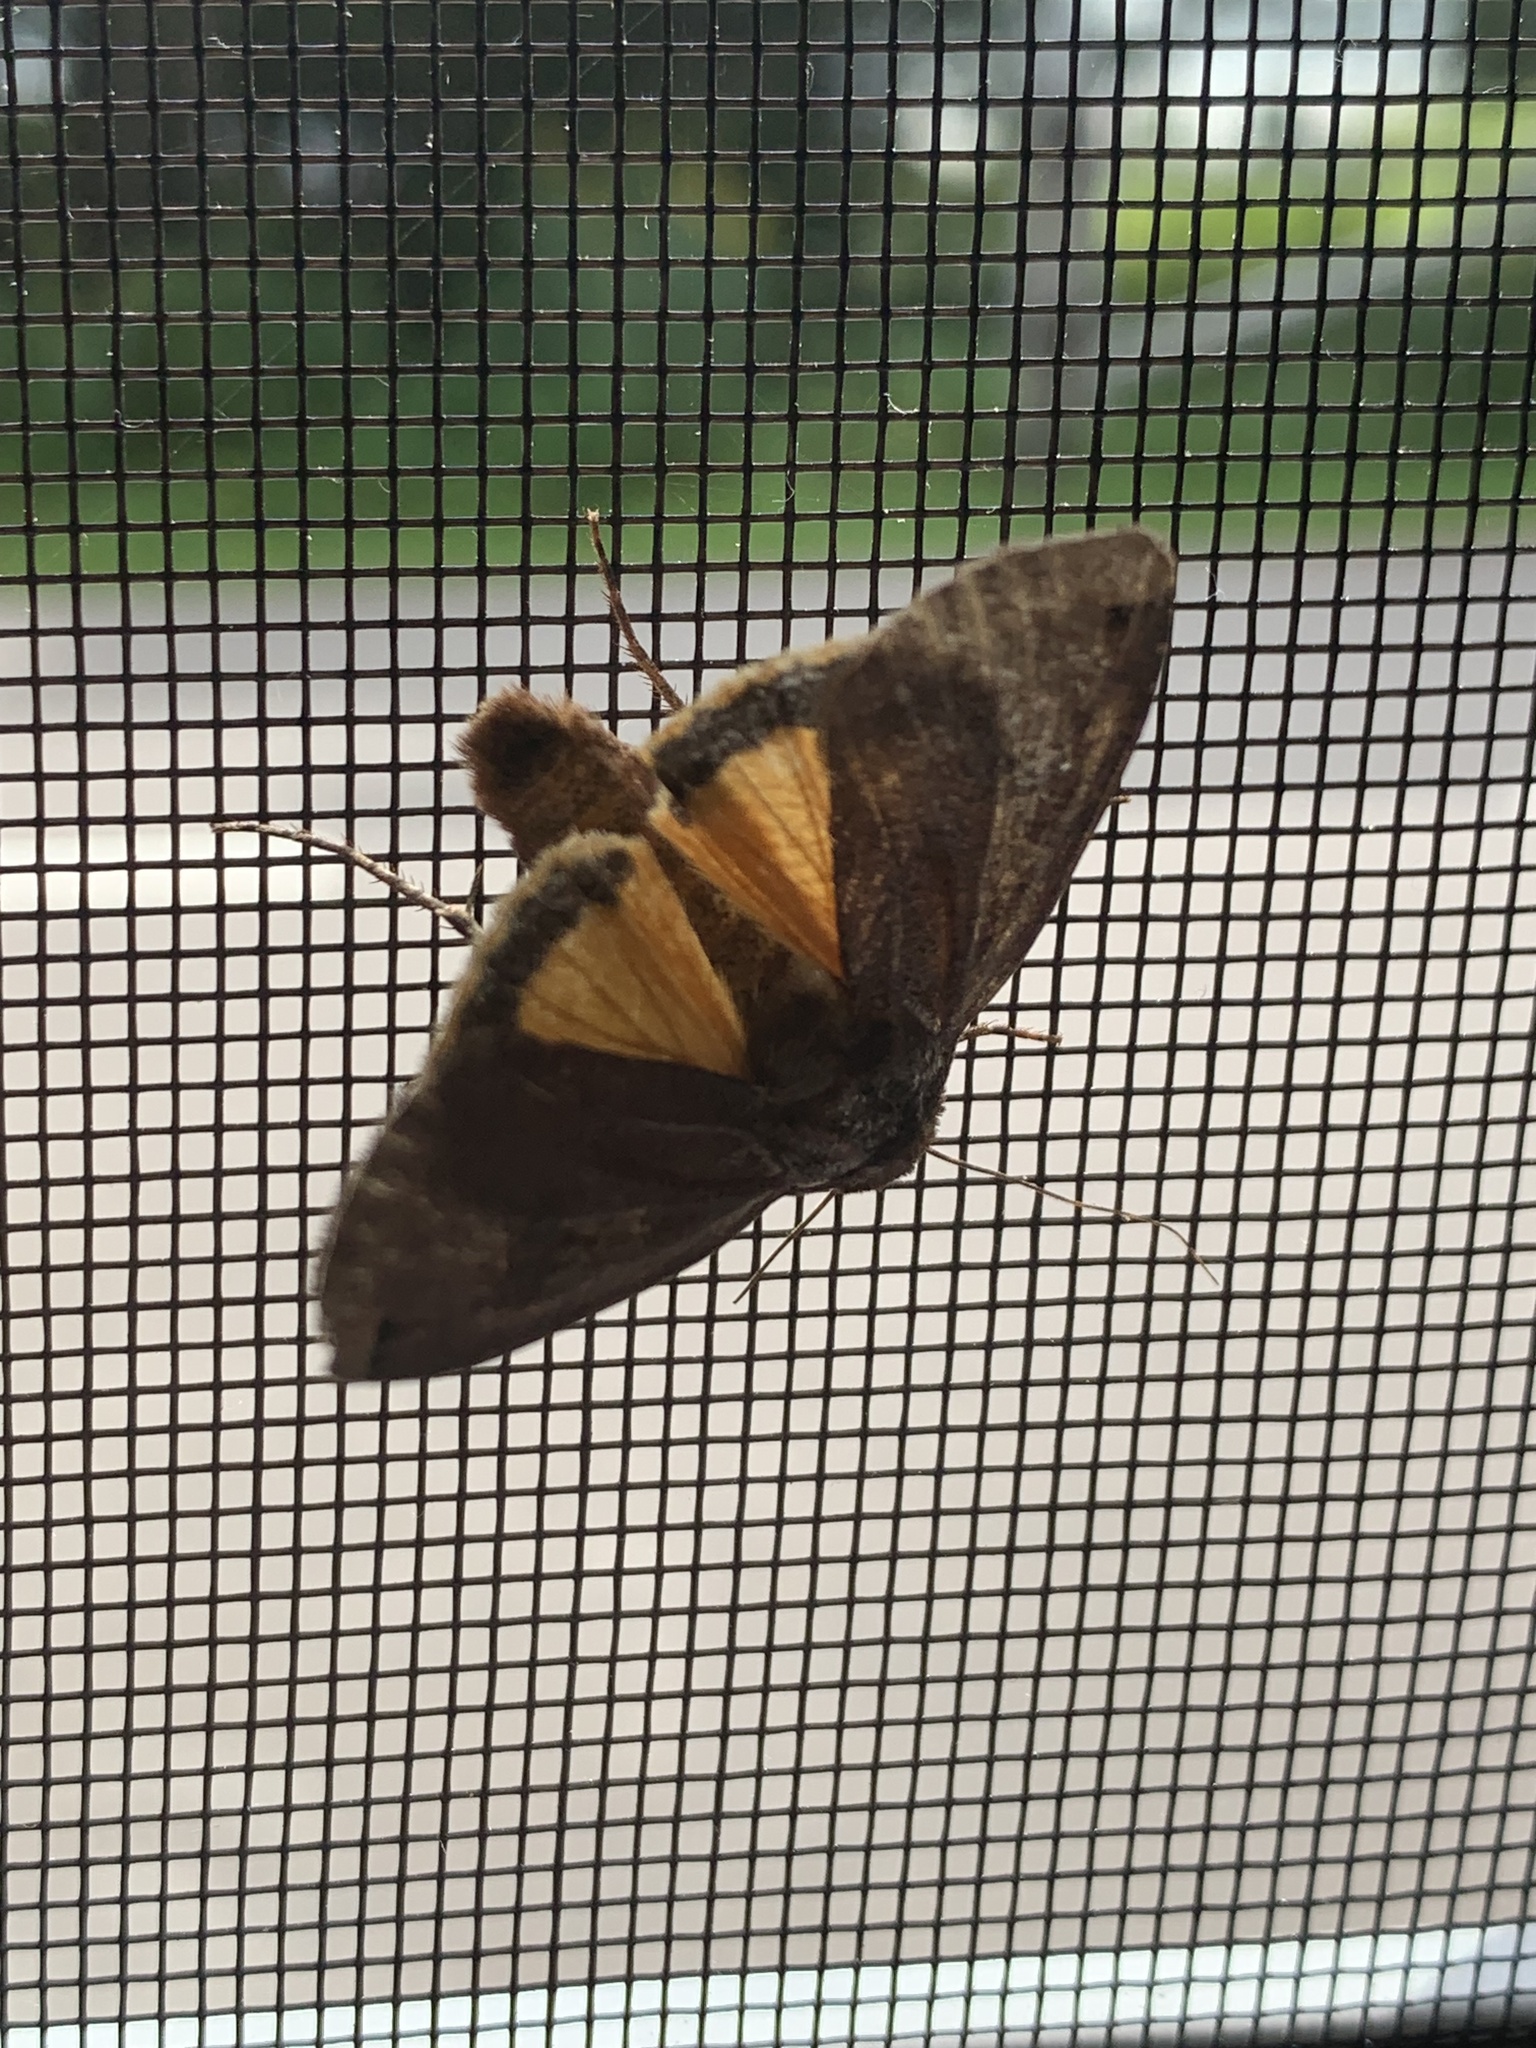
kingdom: Animalia
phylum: Arthropoda
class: Insecta
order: Lepidoptera
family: Noctuidae
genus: Noctua
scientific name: Noctua pronuba
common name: Large yellow underwing
